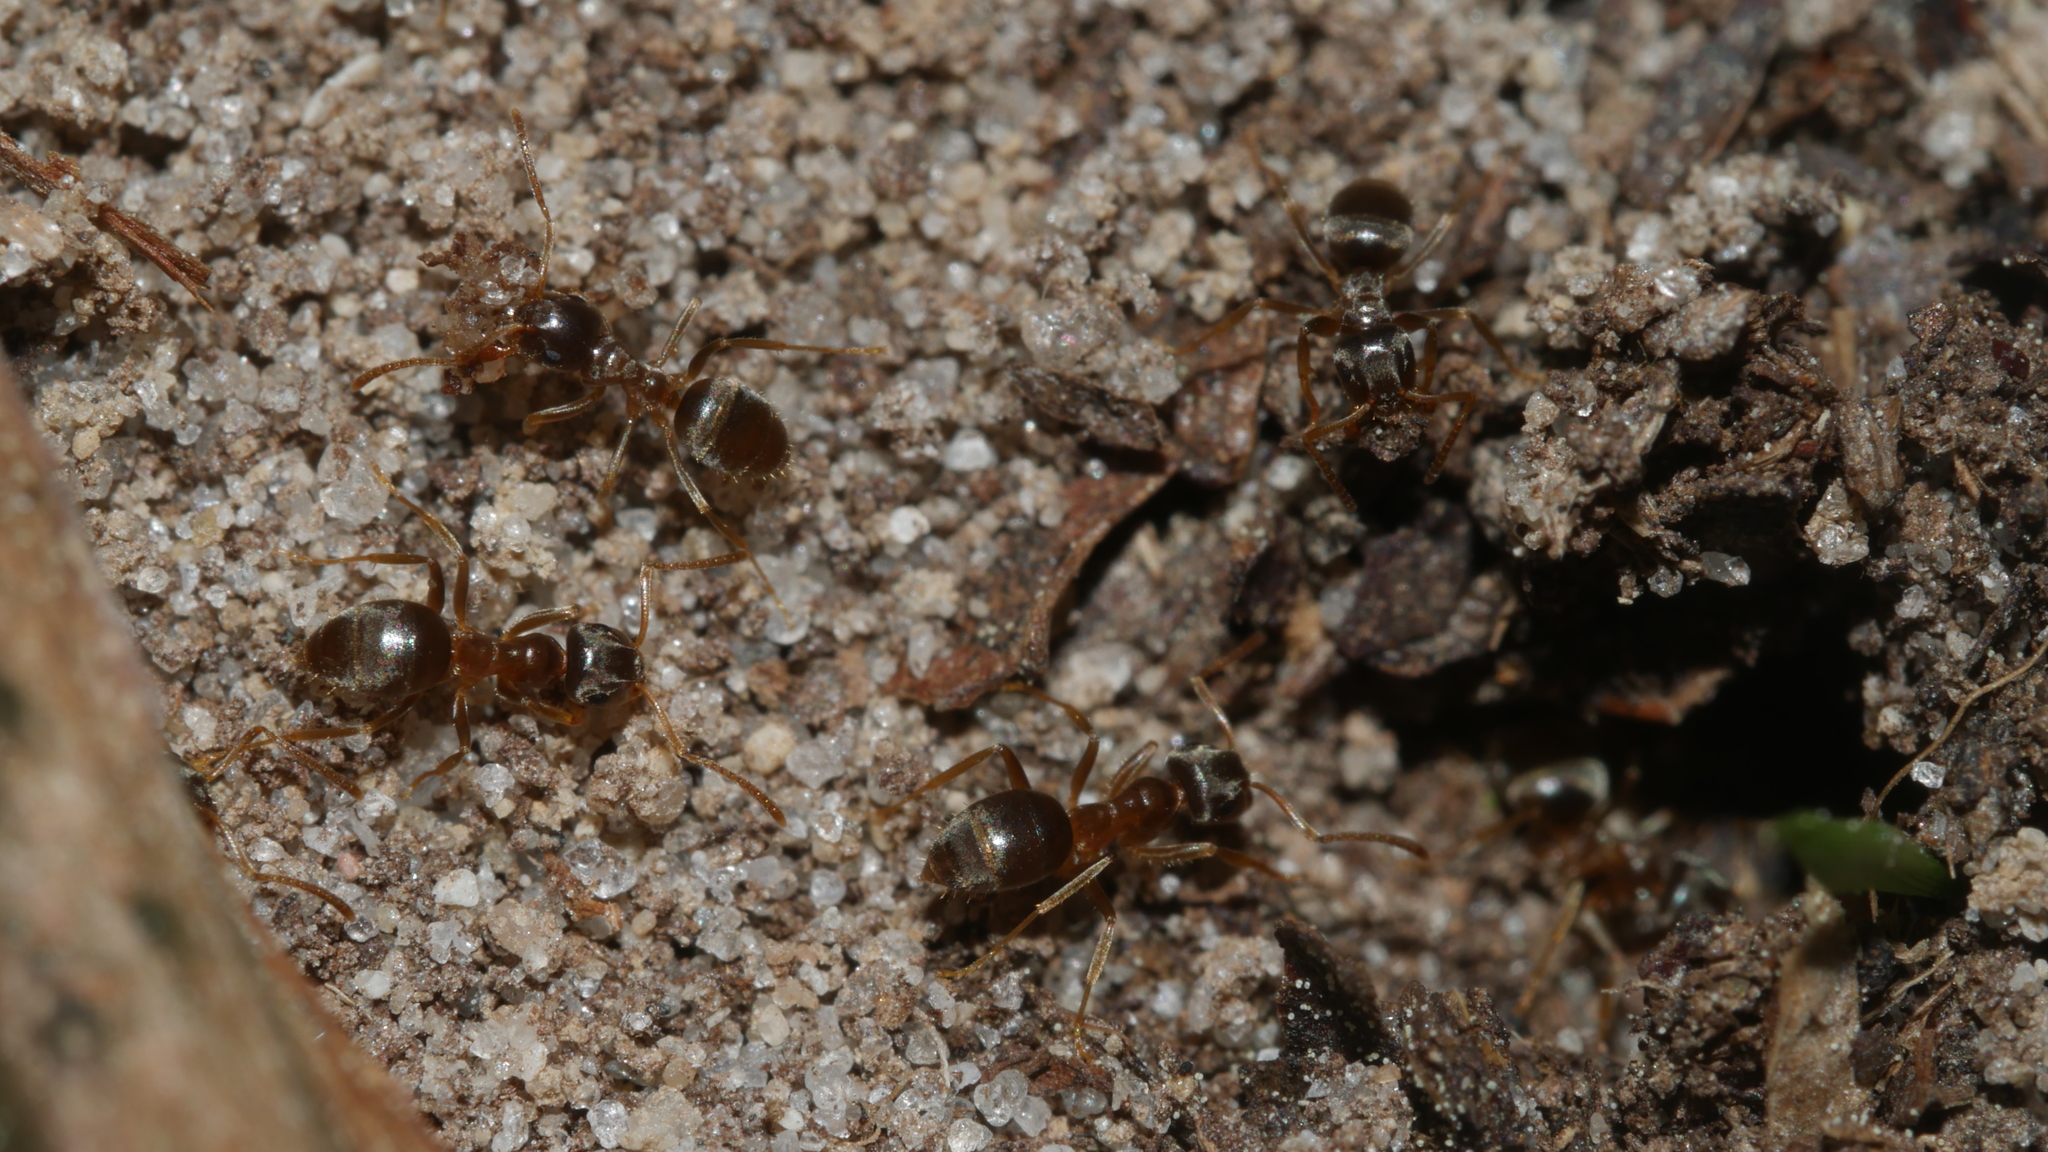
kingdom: Animalia
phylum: Arthropoda
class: Insecta
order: Hymenoptera
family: Formicidae
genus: Lasius
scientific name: Lasius neoniger
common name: Turfgrass ant
